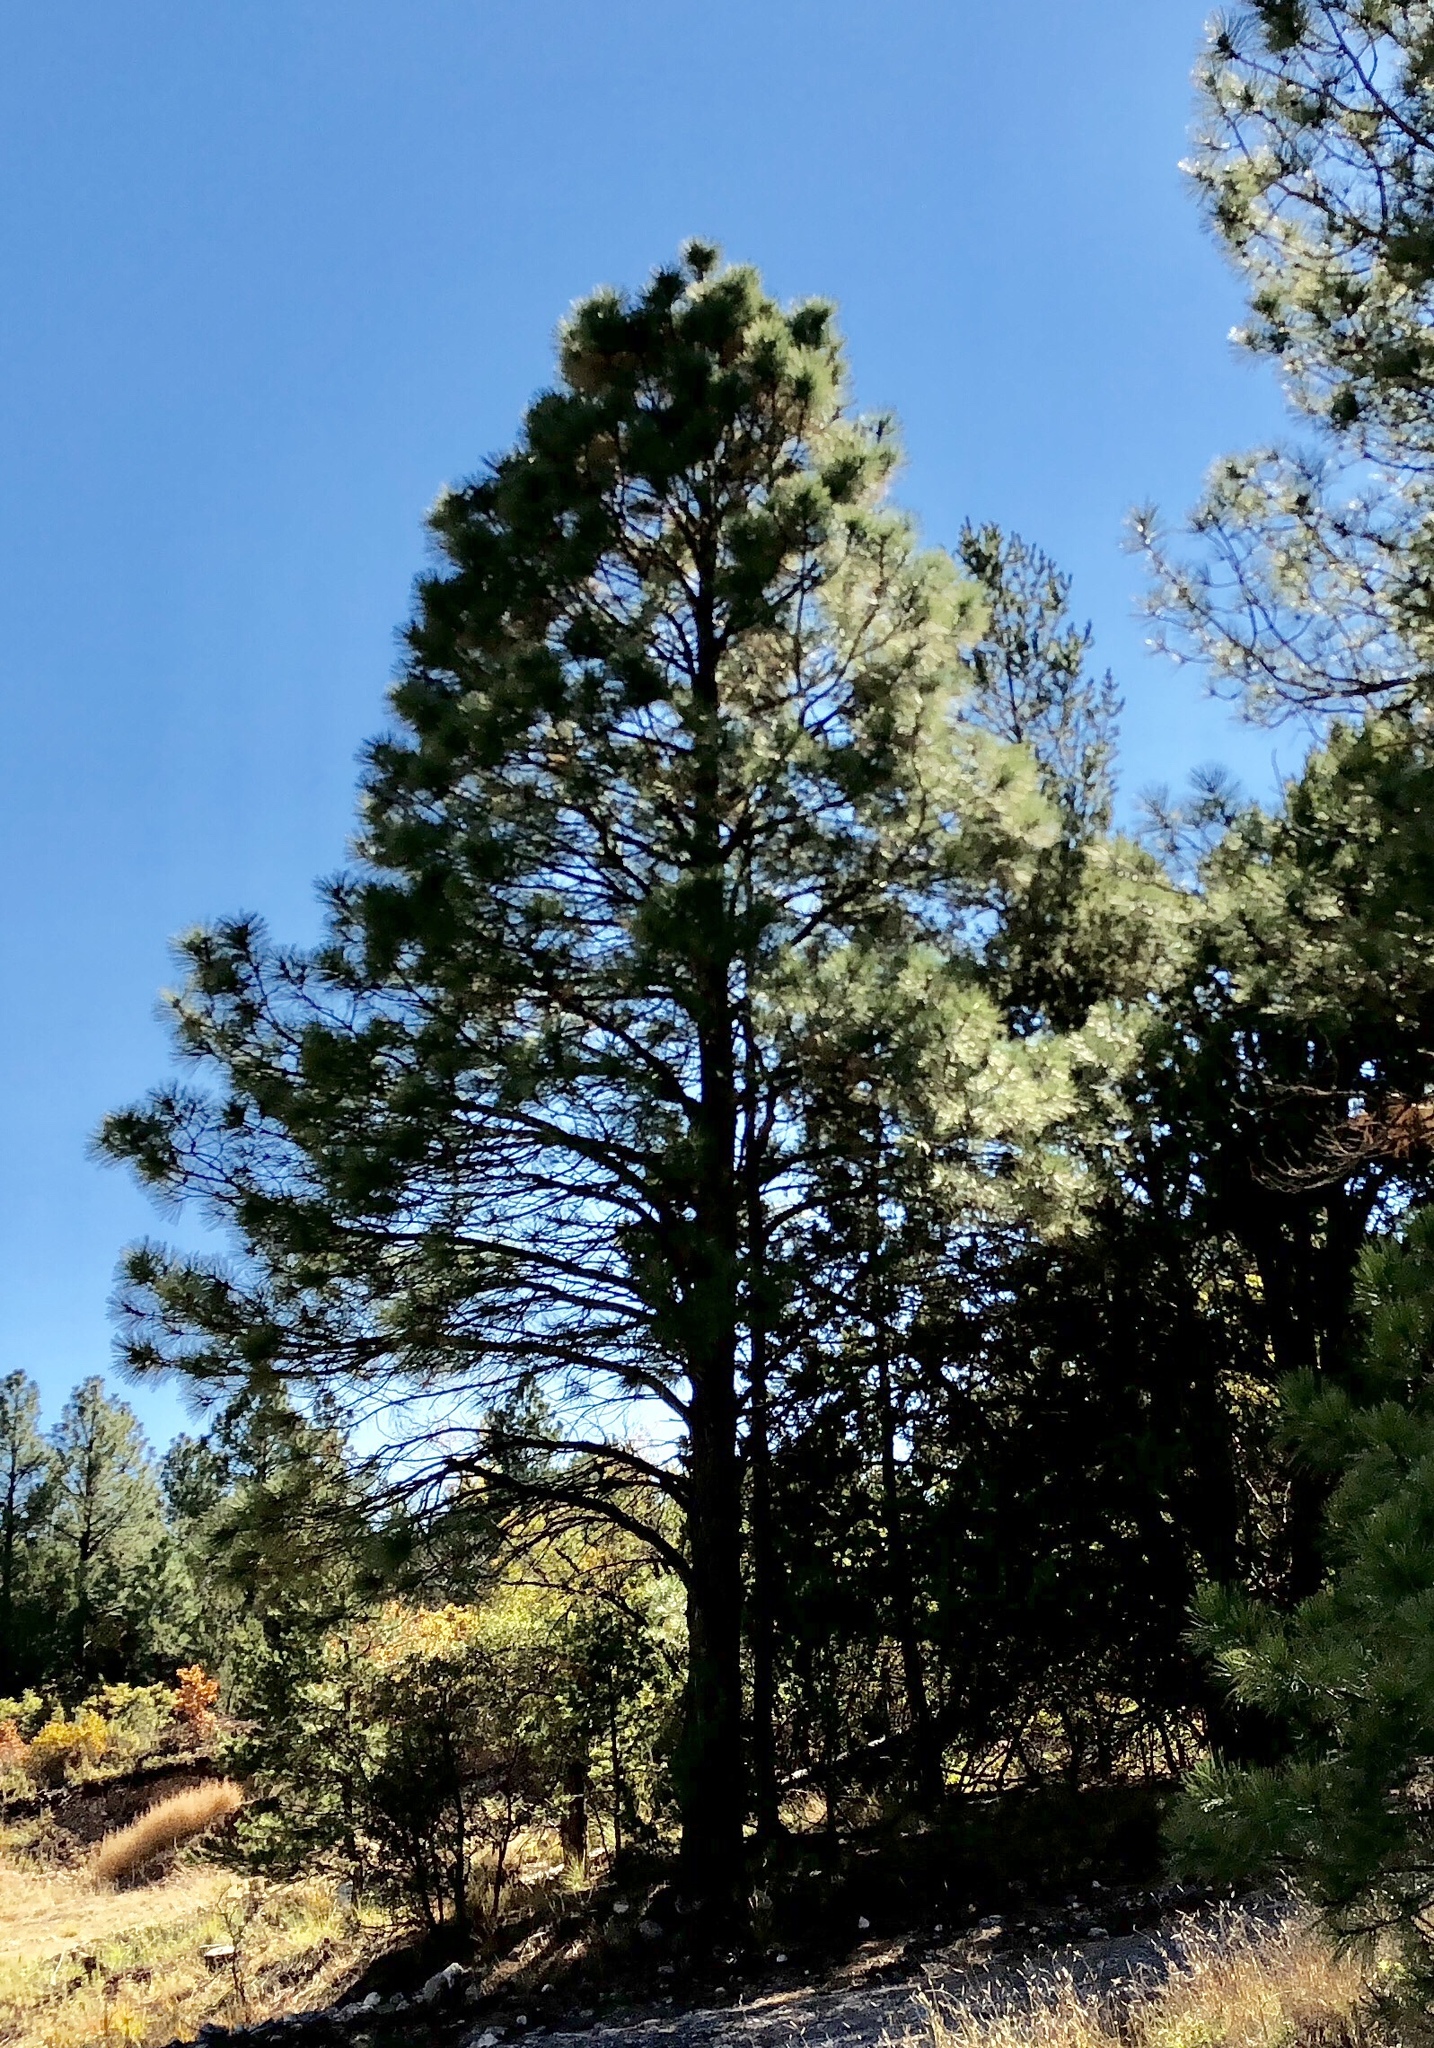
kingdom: Plantae
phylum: Tracheophyta
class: Pinopsida
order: Pinales
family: Pinaceae
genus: Pinus
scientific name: Pinus ponderosa
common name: Western yellow-pine
